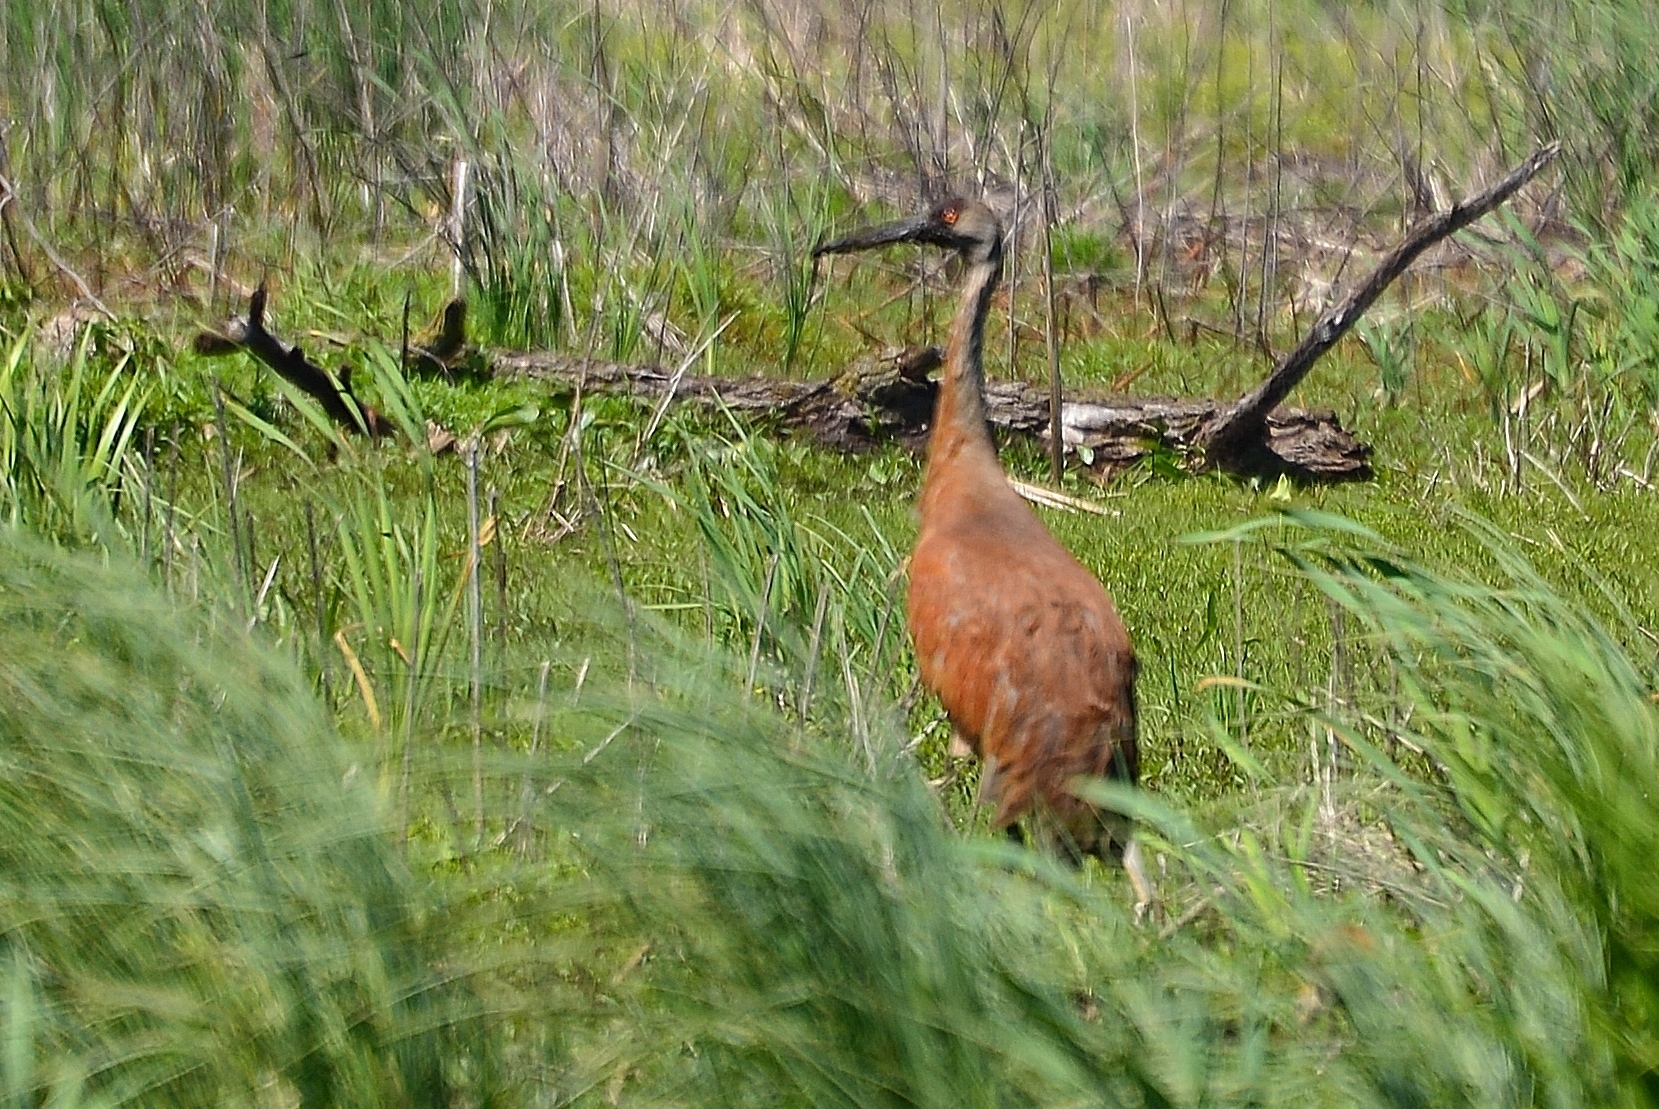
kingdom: Animalia
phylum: Chordata
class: Aves
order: Gruiformes
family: Gruidae
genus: Grus
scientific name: Grus canadensis
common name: Sandhill crane
